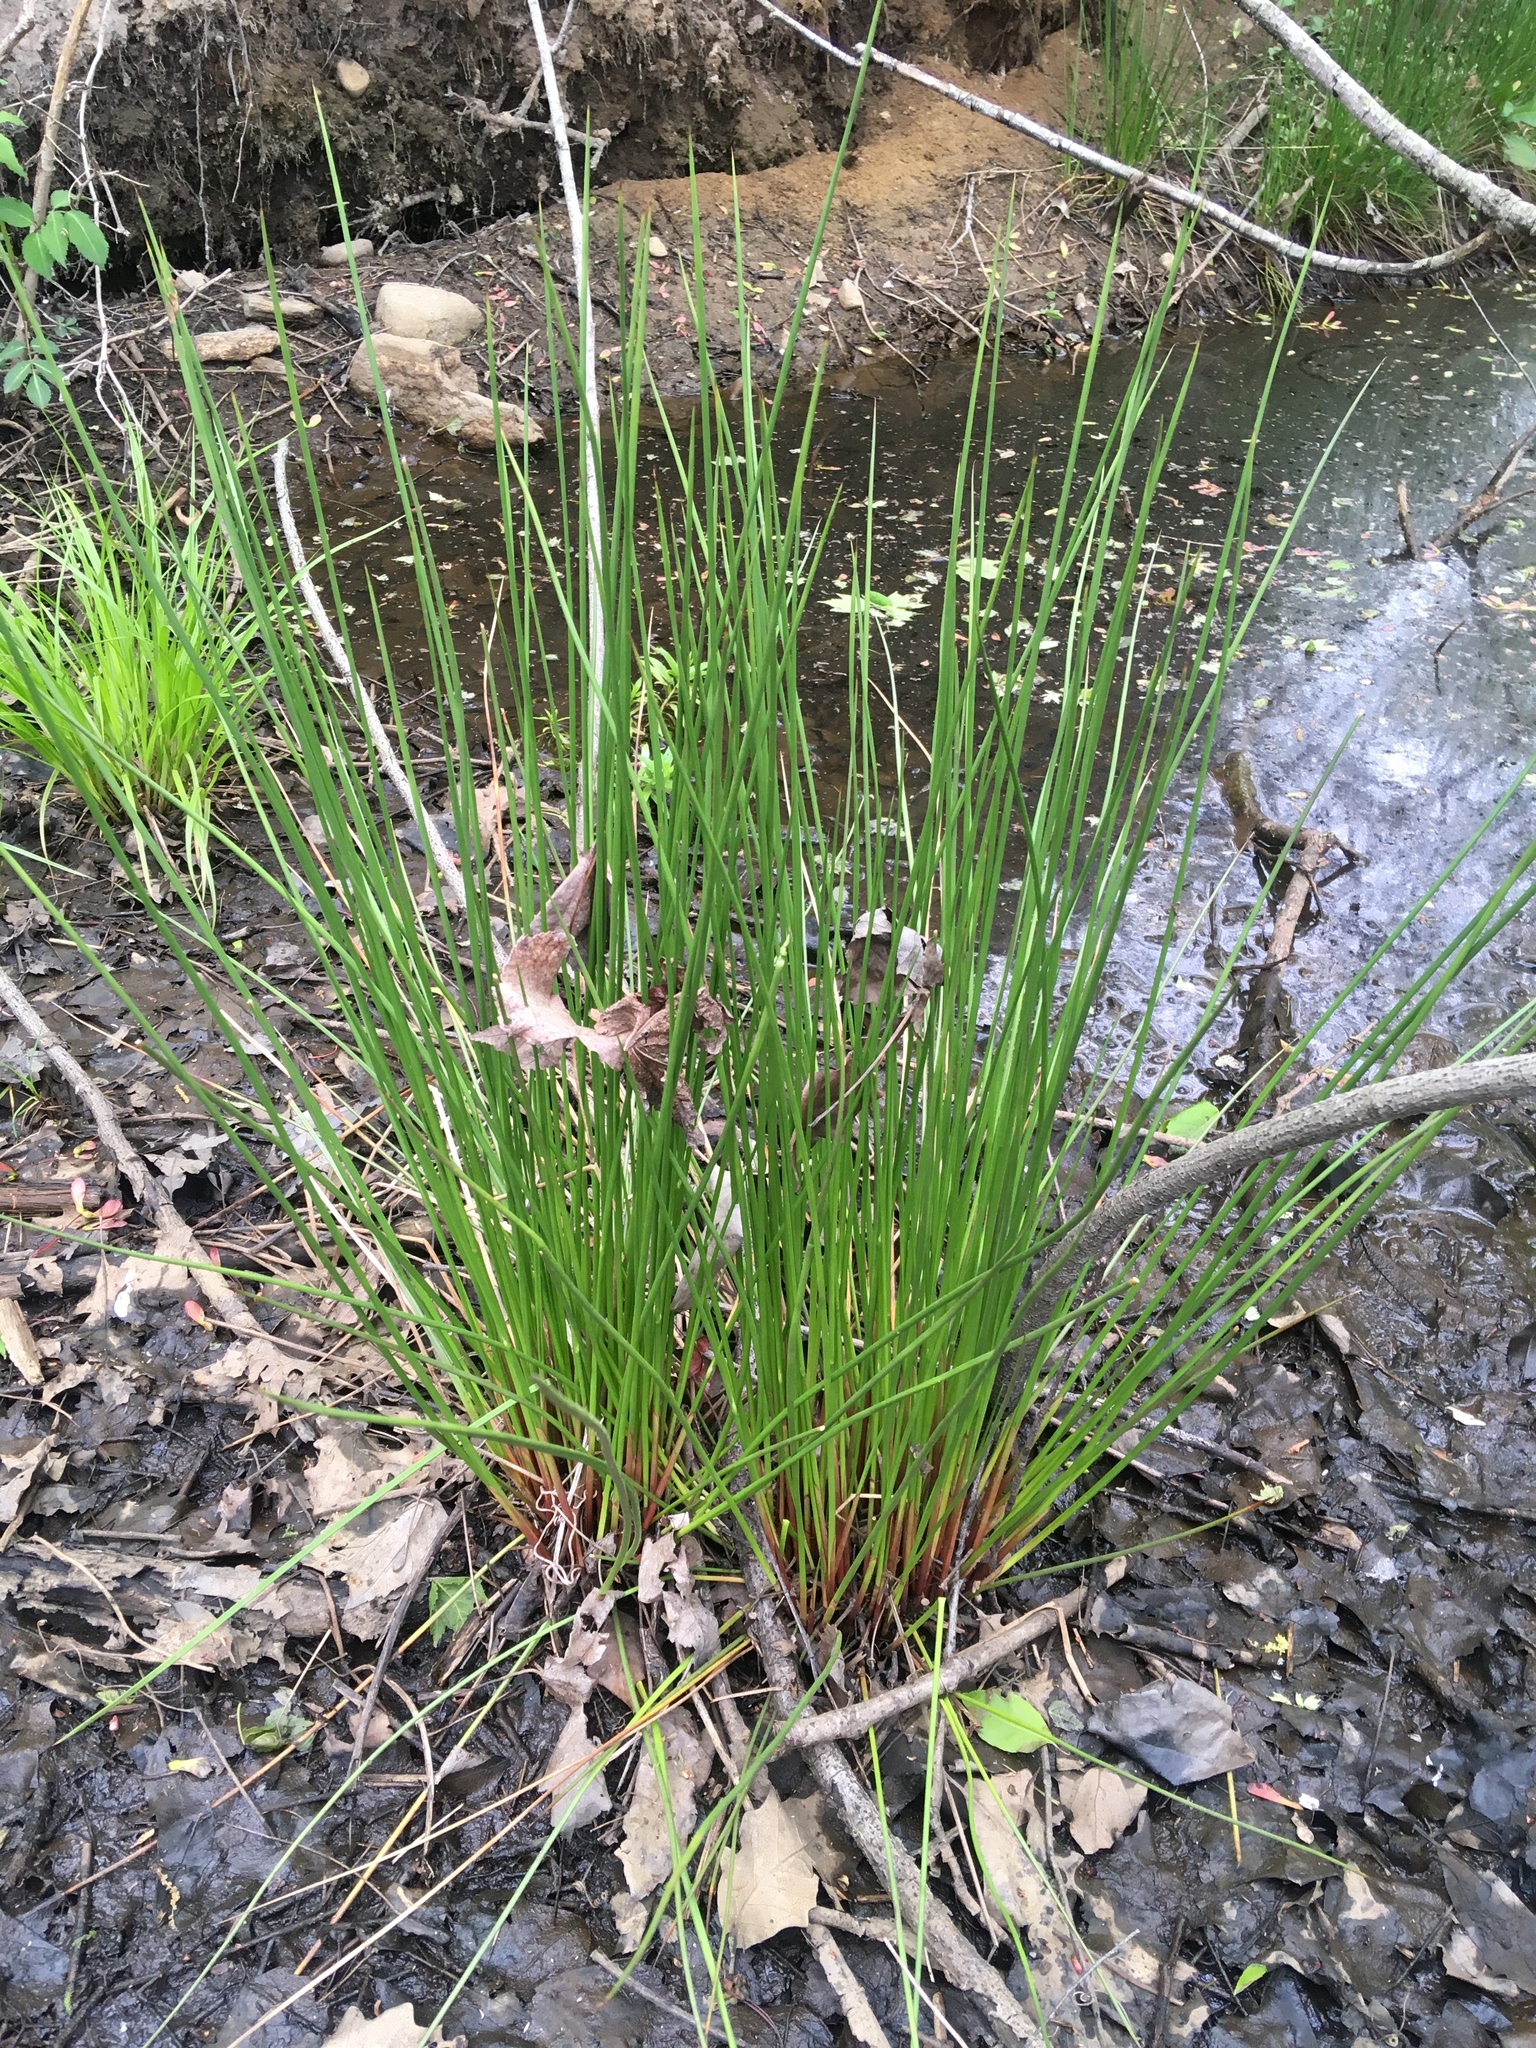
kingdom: Plantae
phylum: Tracheophyta
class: Liliopsida
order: Poales
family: Juncaceae
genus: Juncus
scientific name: Juncus canadensis
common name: Canada rush
